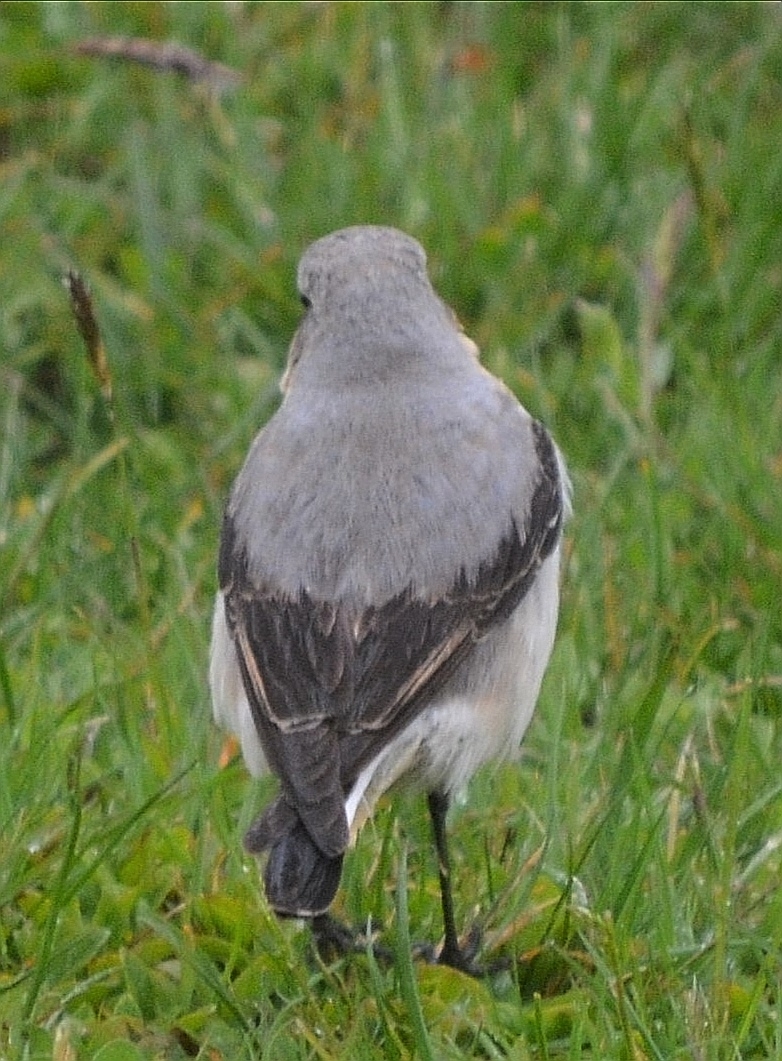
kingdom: Animalia
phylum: Chordata
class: Aves
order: Passeriformes
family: Muscicapidae
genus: Oenanthe
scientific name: Oenanthe oenanthe
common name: Northern wheatear
